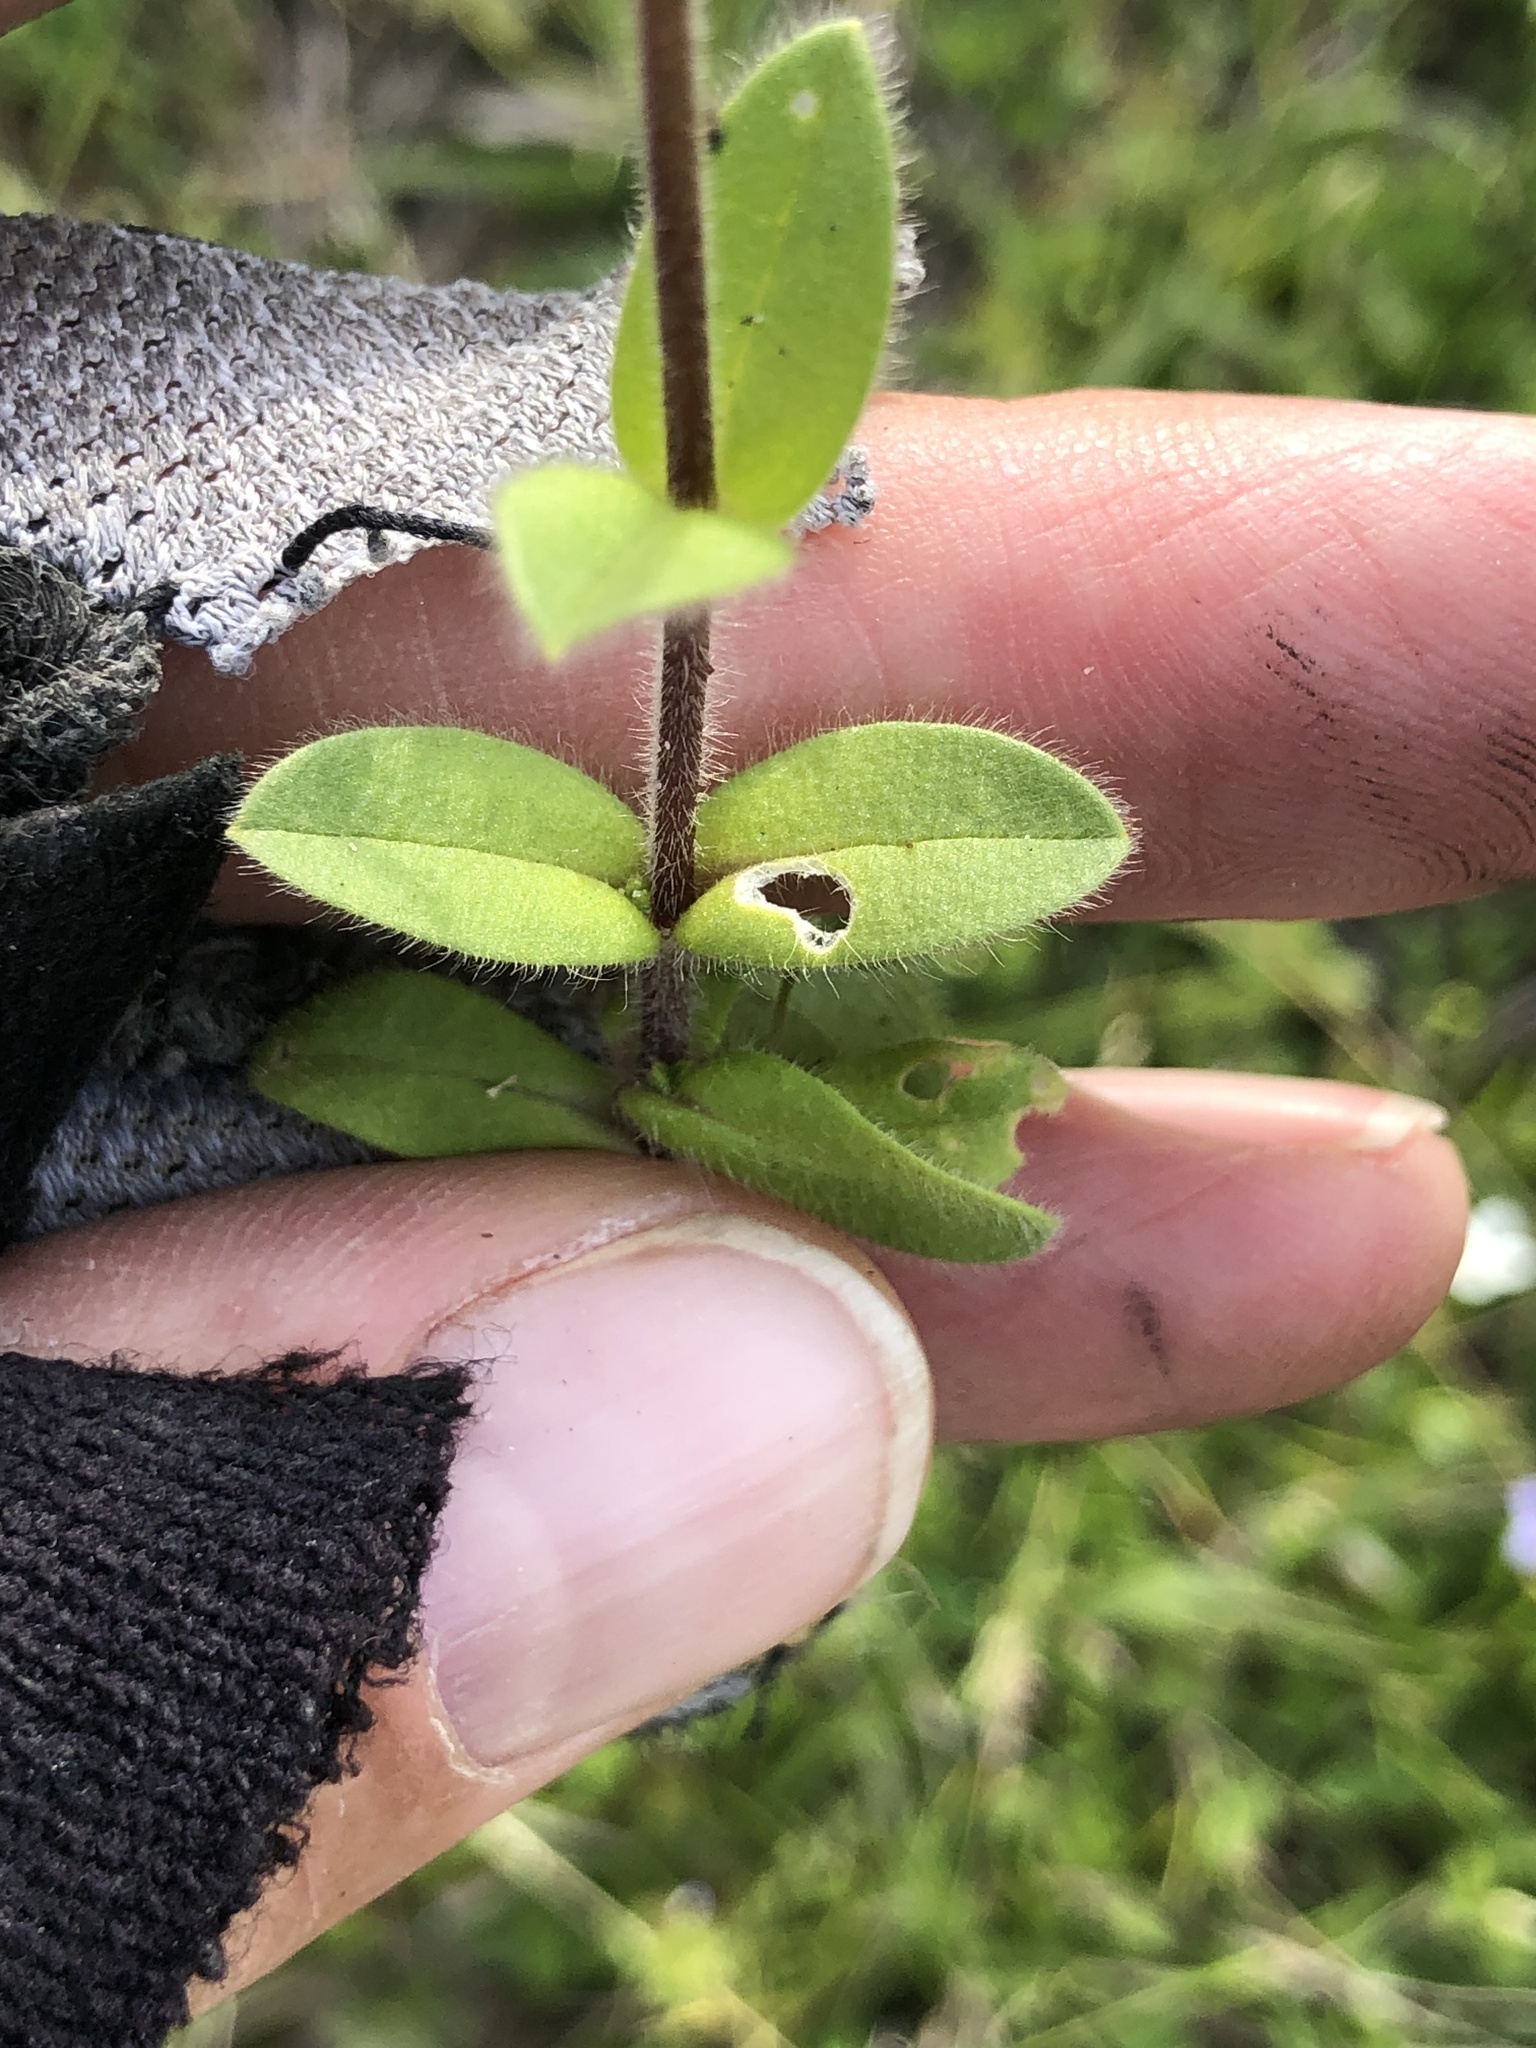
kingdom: Plantae
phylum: Tracheophyta
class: Magnoliopsida
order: Caryophyllales
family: Caryophyllaceae
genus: Cerastium
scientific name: Cerastium glomeratum
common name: Sticky chickweed
